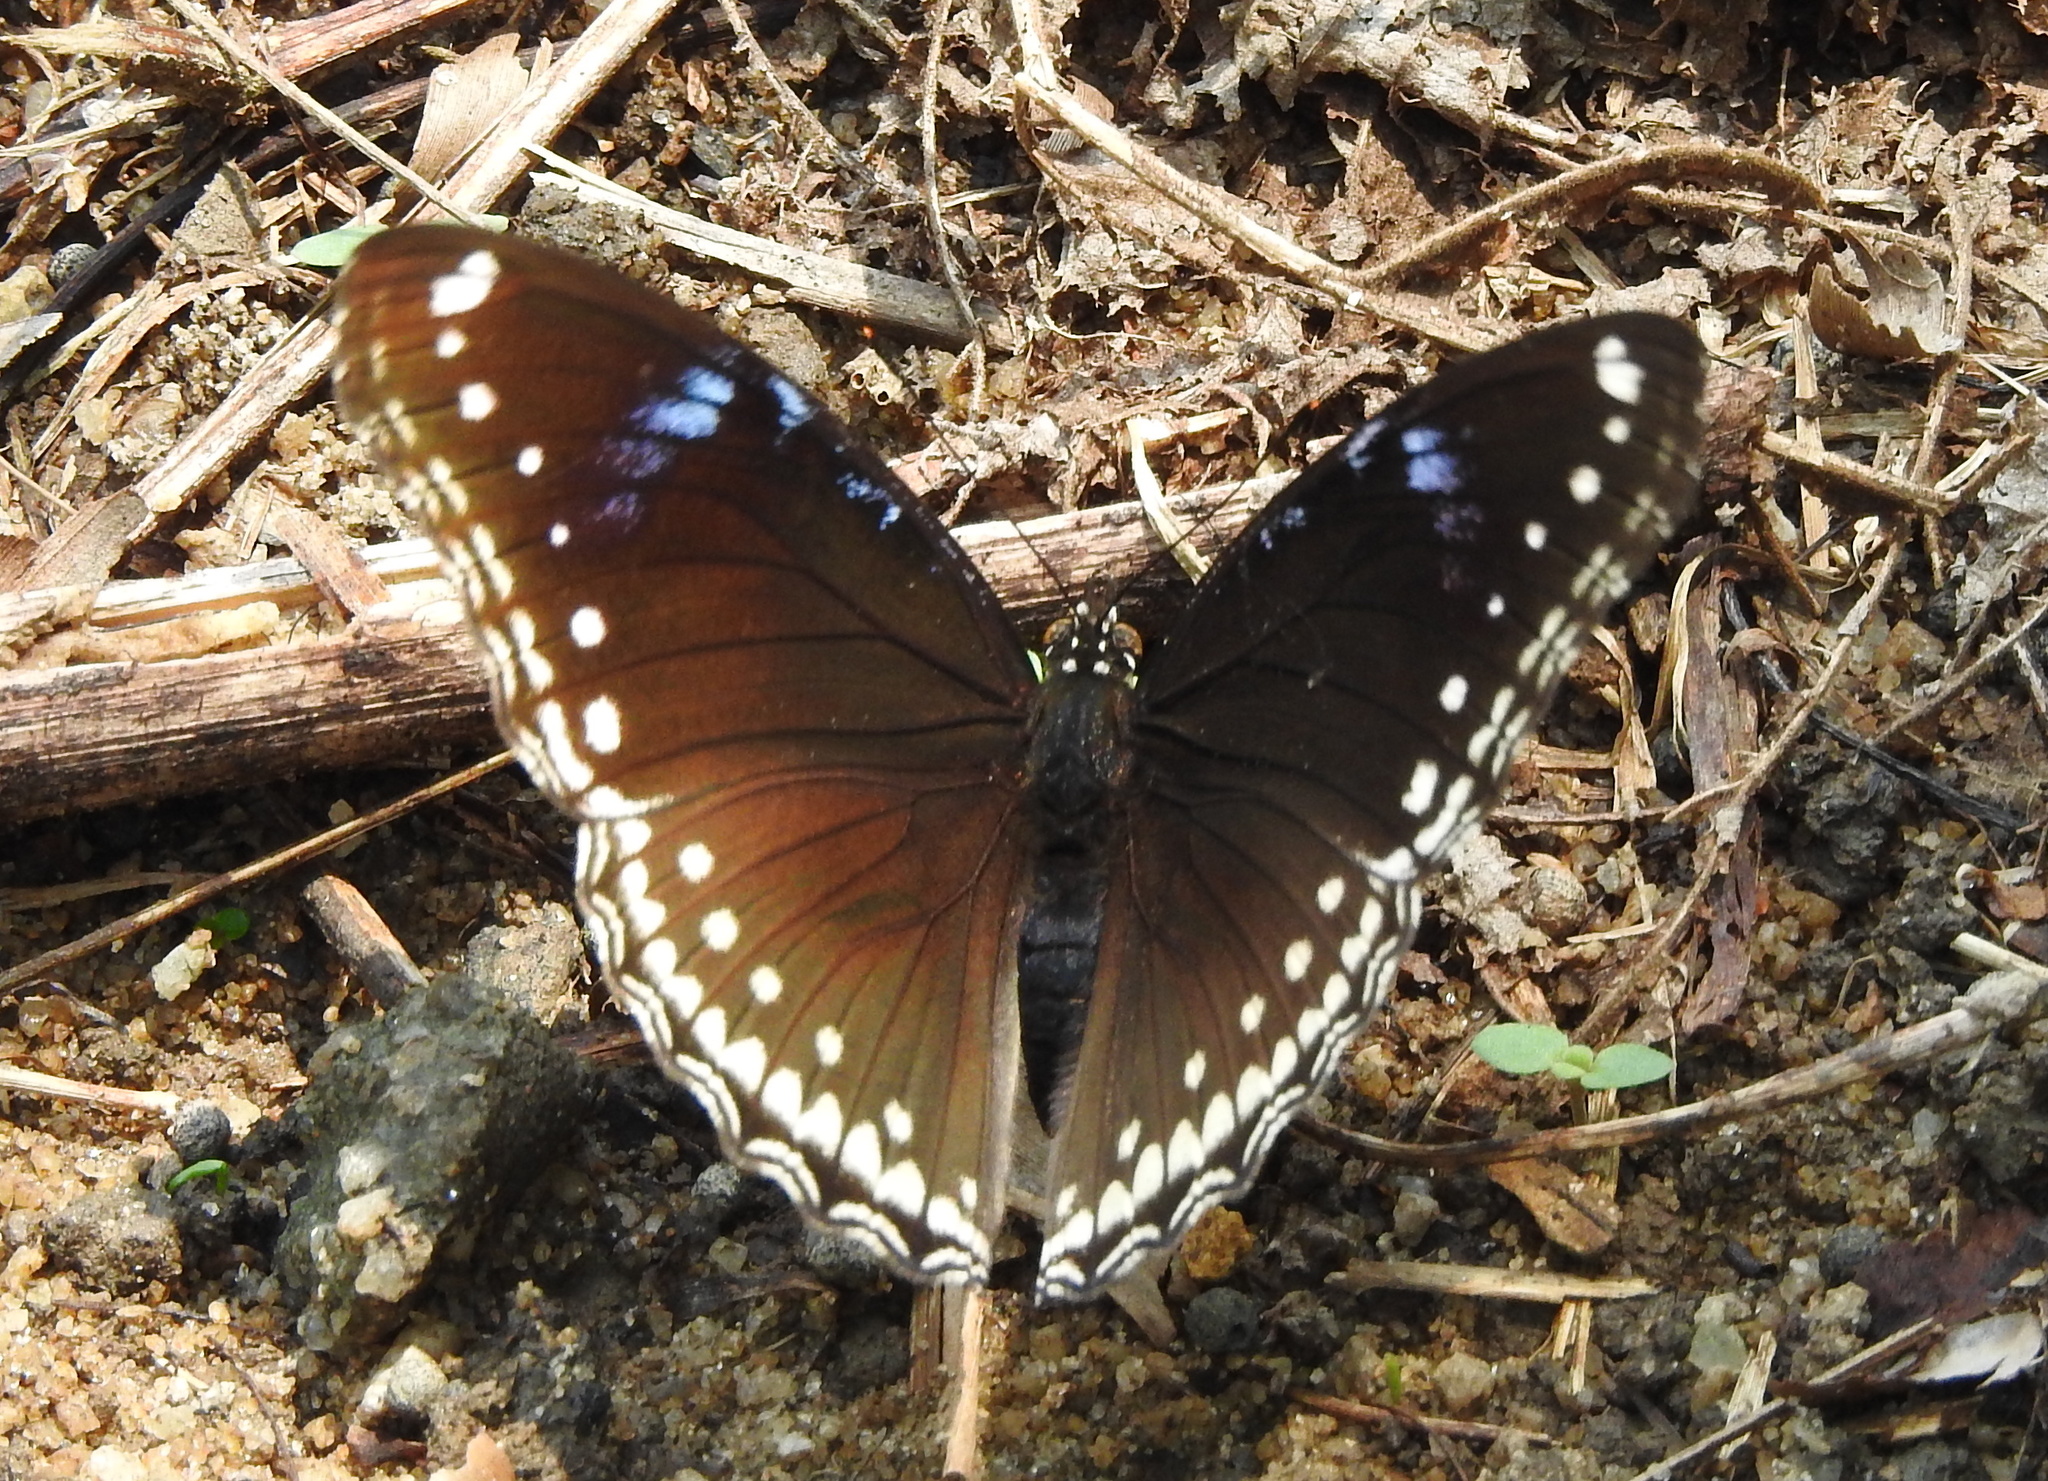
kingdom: Animalia
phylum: Arthropoda
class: Insecta
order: Lepidoptera
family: Nymphalidae
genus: Hypolimnas
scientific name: Hypolimnas bolina
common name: Great eggfly
